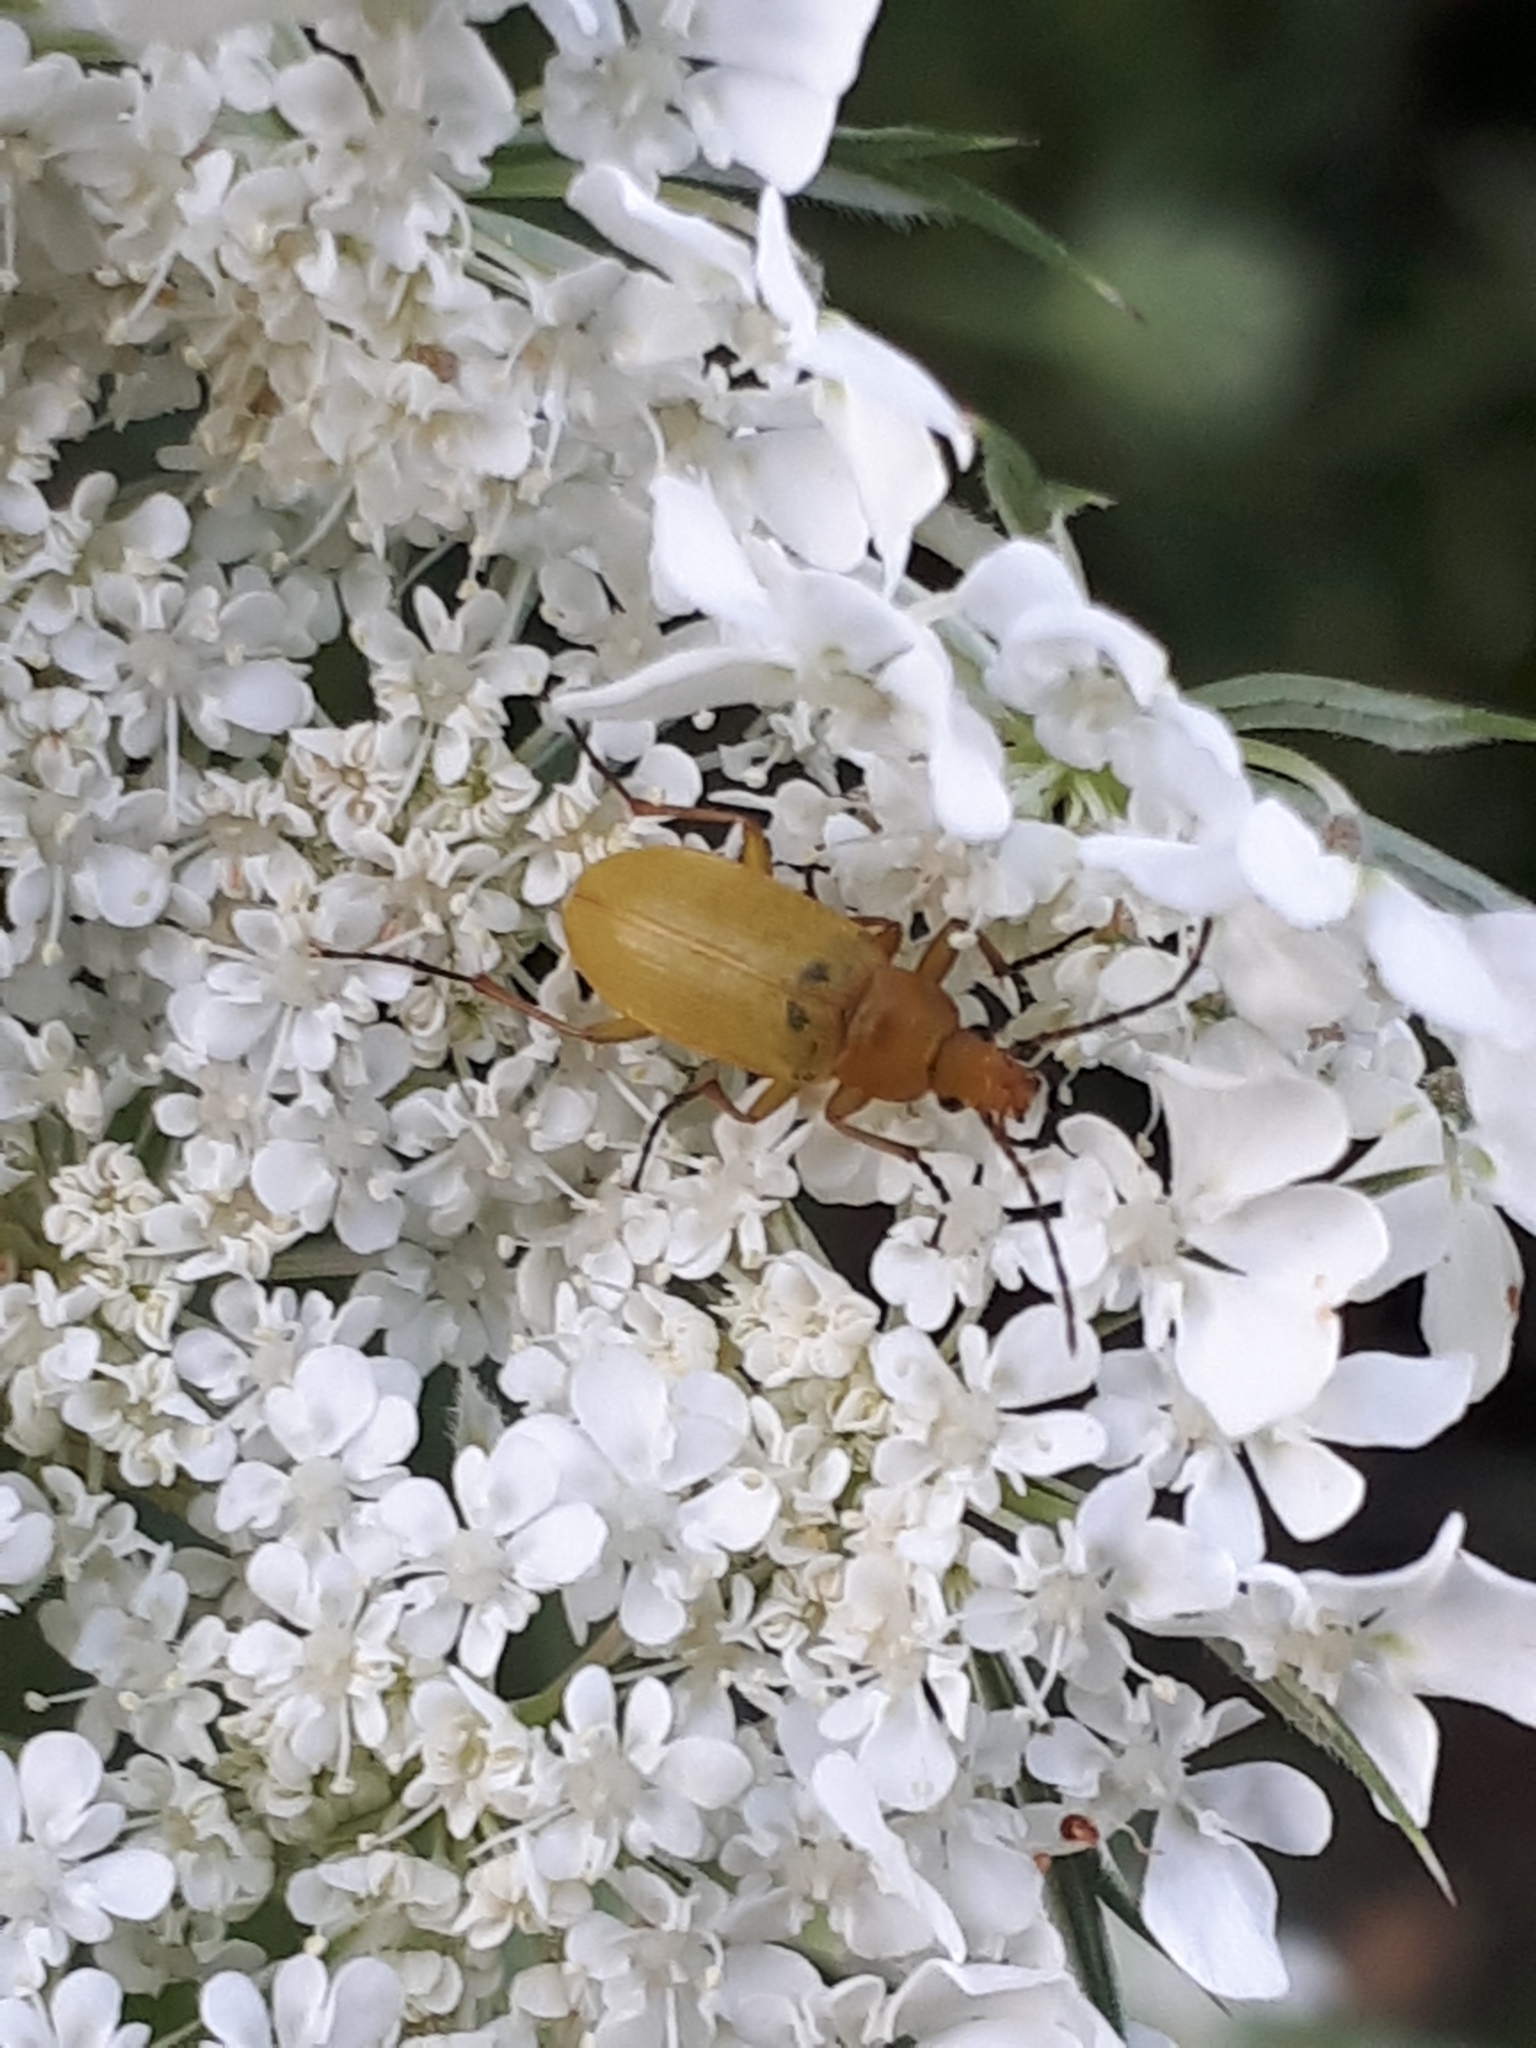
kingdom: Animalia
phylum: Arthropoda
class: Insecta
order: Coleoptera
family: Tenebrionidae
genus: Cteniopus
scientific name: Cteniopus sulphureus
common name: Sulphur beetle
